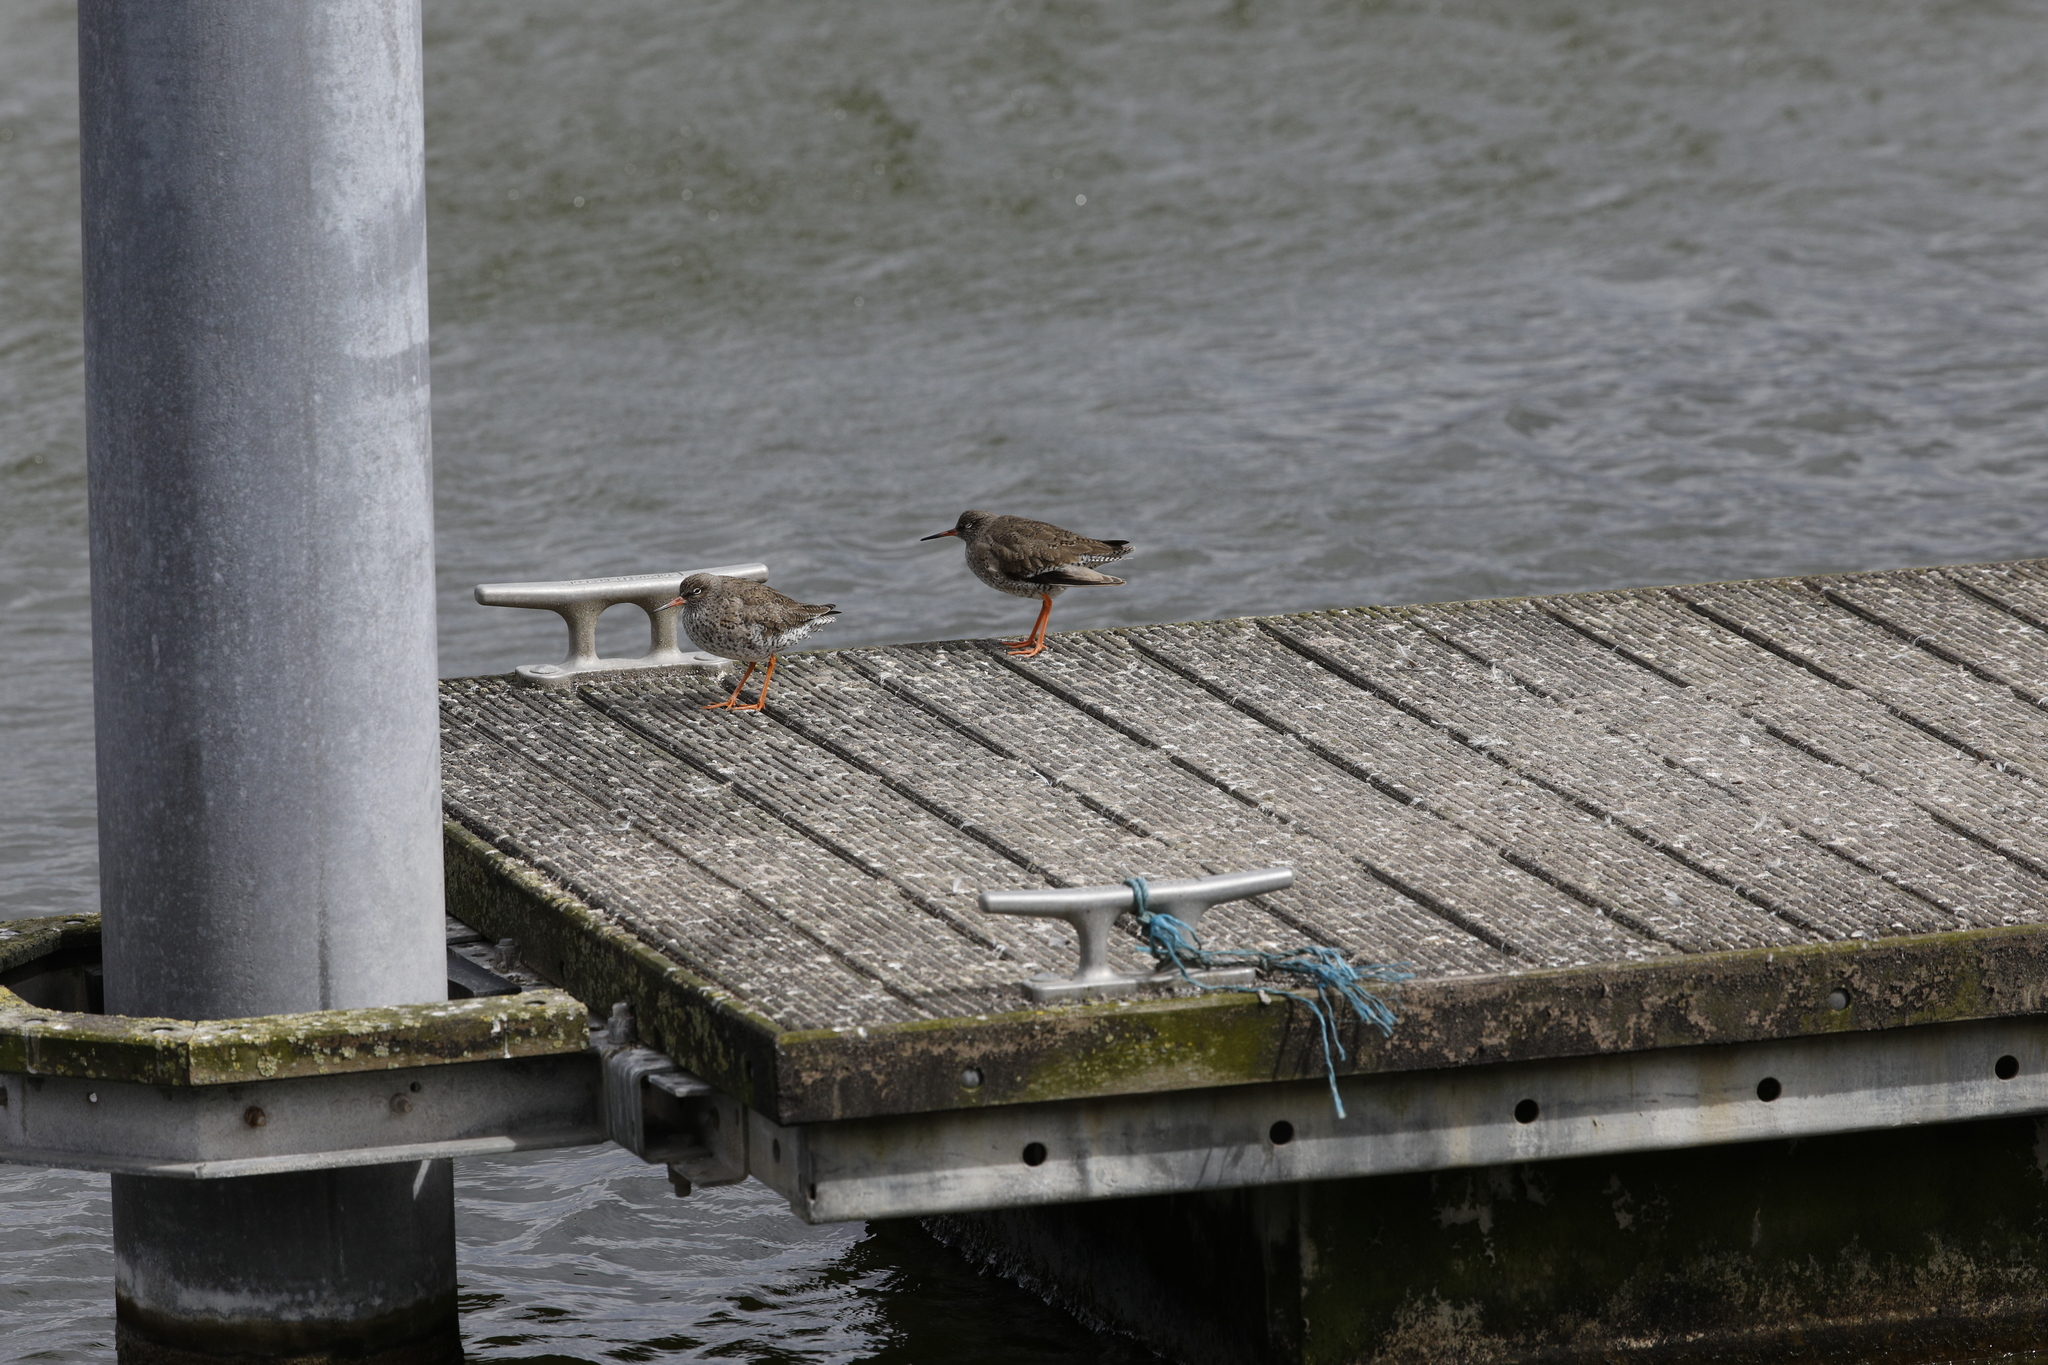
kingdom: Animalia
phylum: Chordata
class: Aves
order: Charadriiformes
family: Scolopacidae
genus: Tringa
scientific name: Tringa totanus
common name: Common redshank
